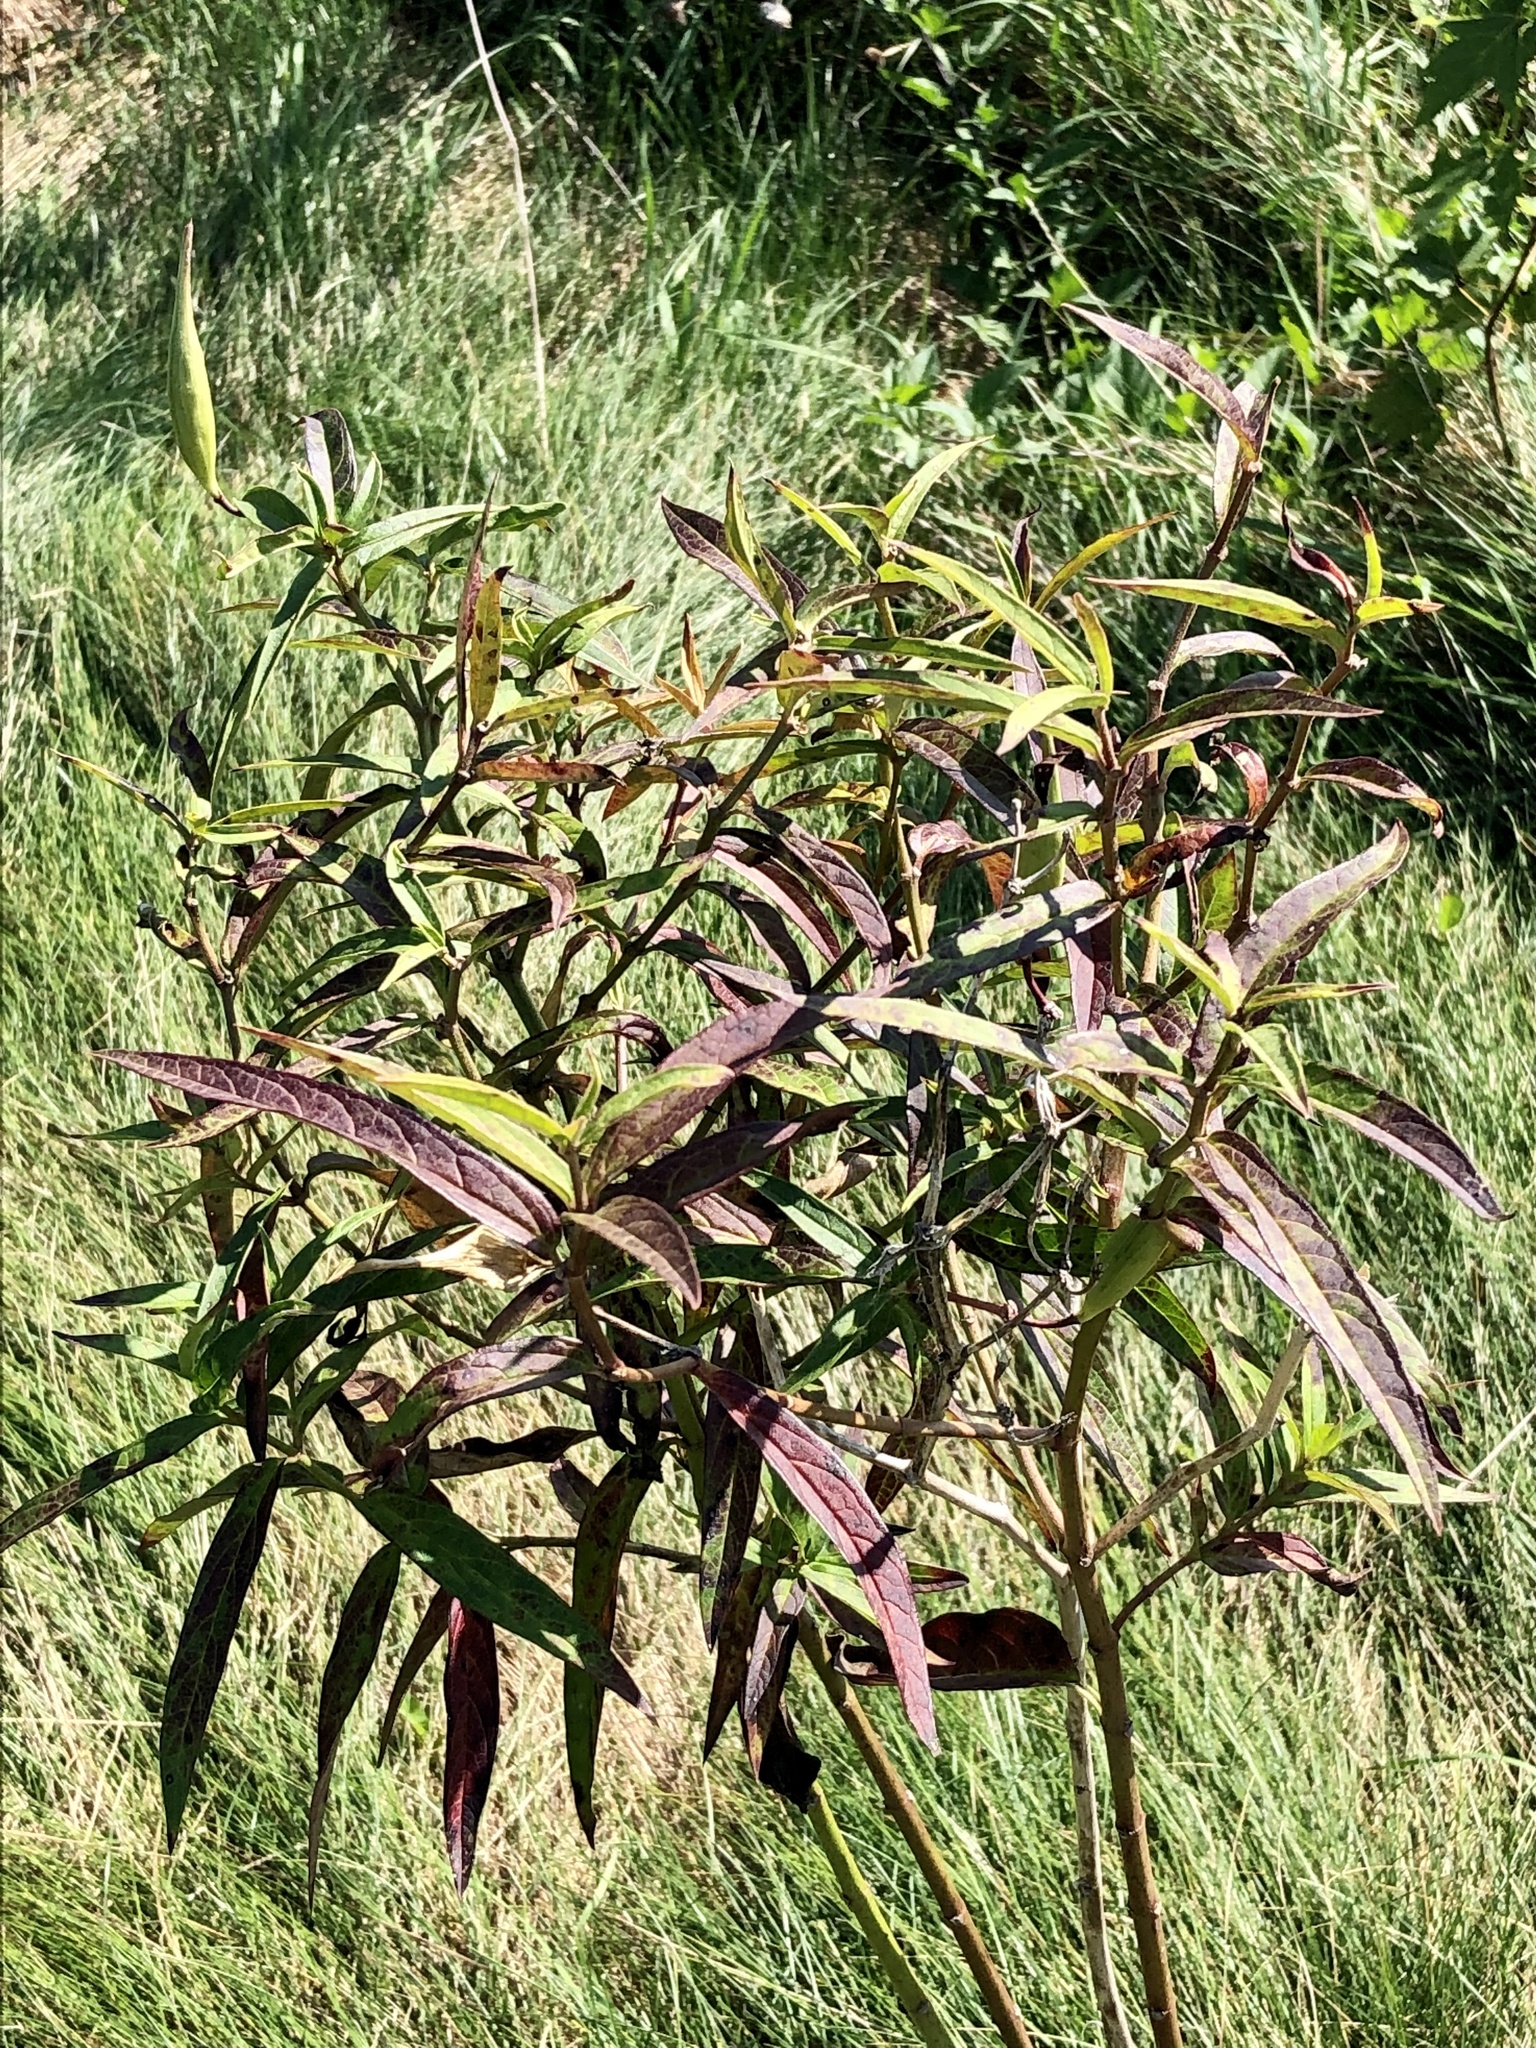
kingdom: Plantae
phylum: Tracheophyta
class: Magnoliopsida
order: Gentianales
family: Apocynaceae
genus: Asclepias
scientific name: Asclepias incarnata
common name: Swamp milkweed
